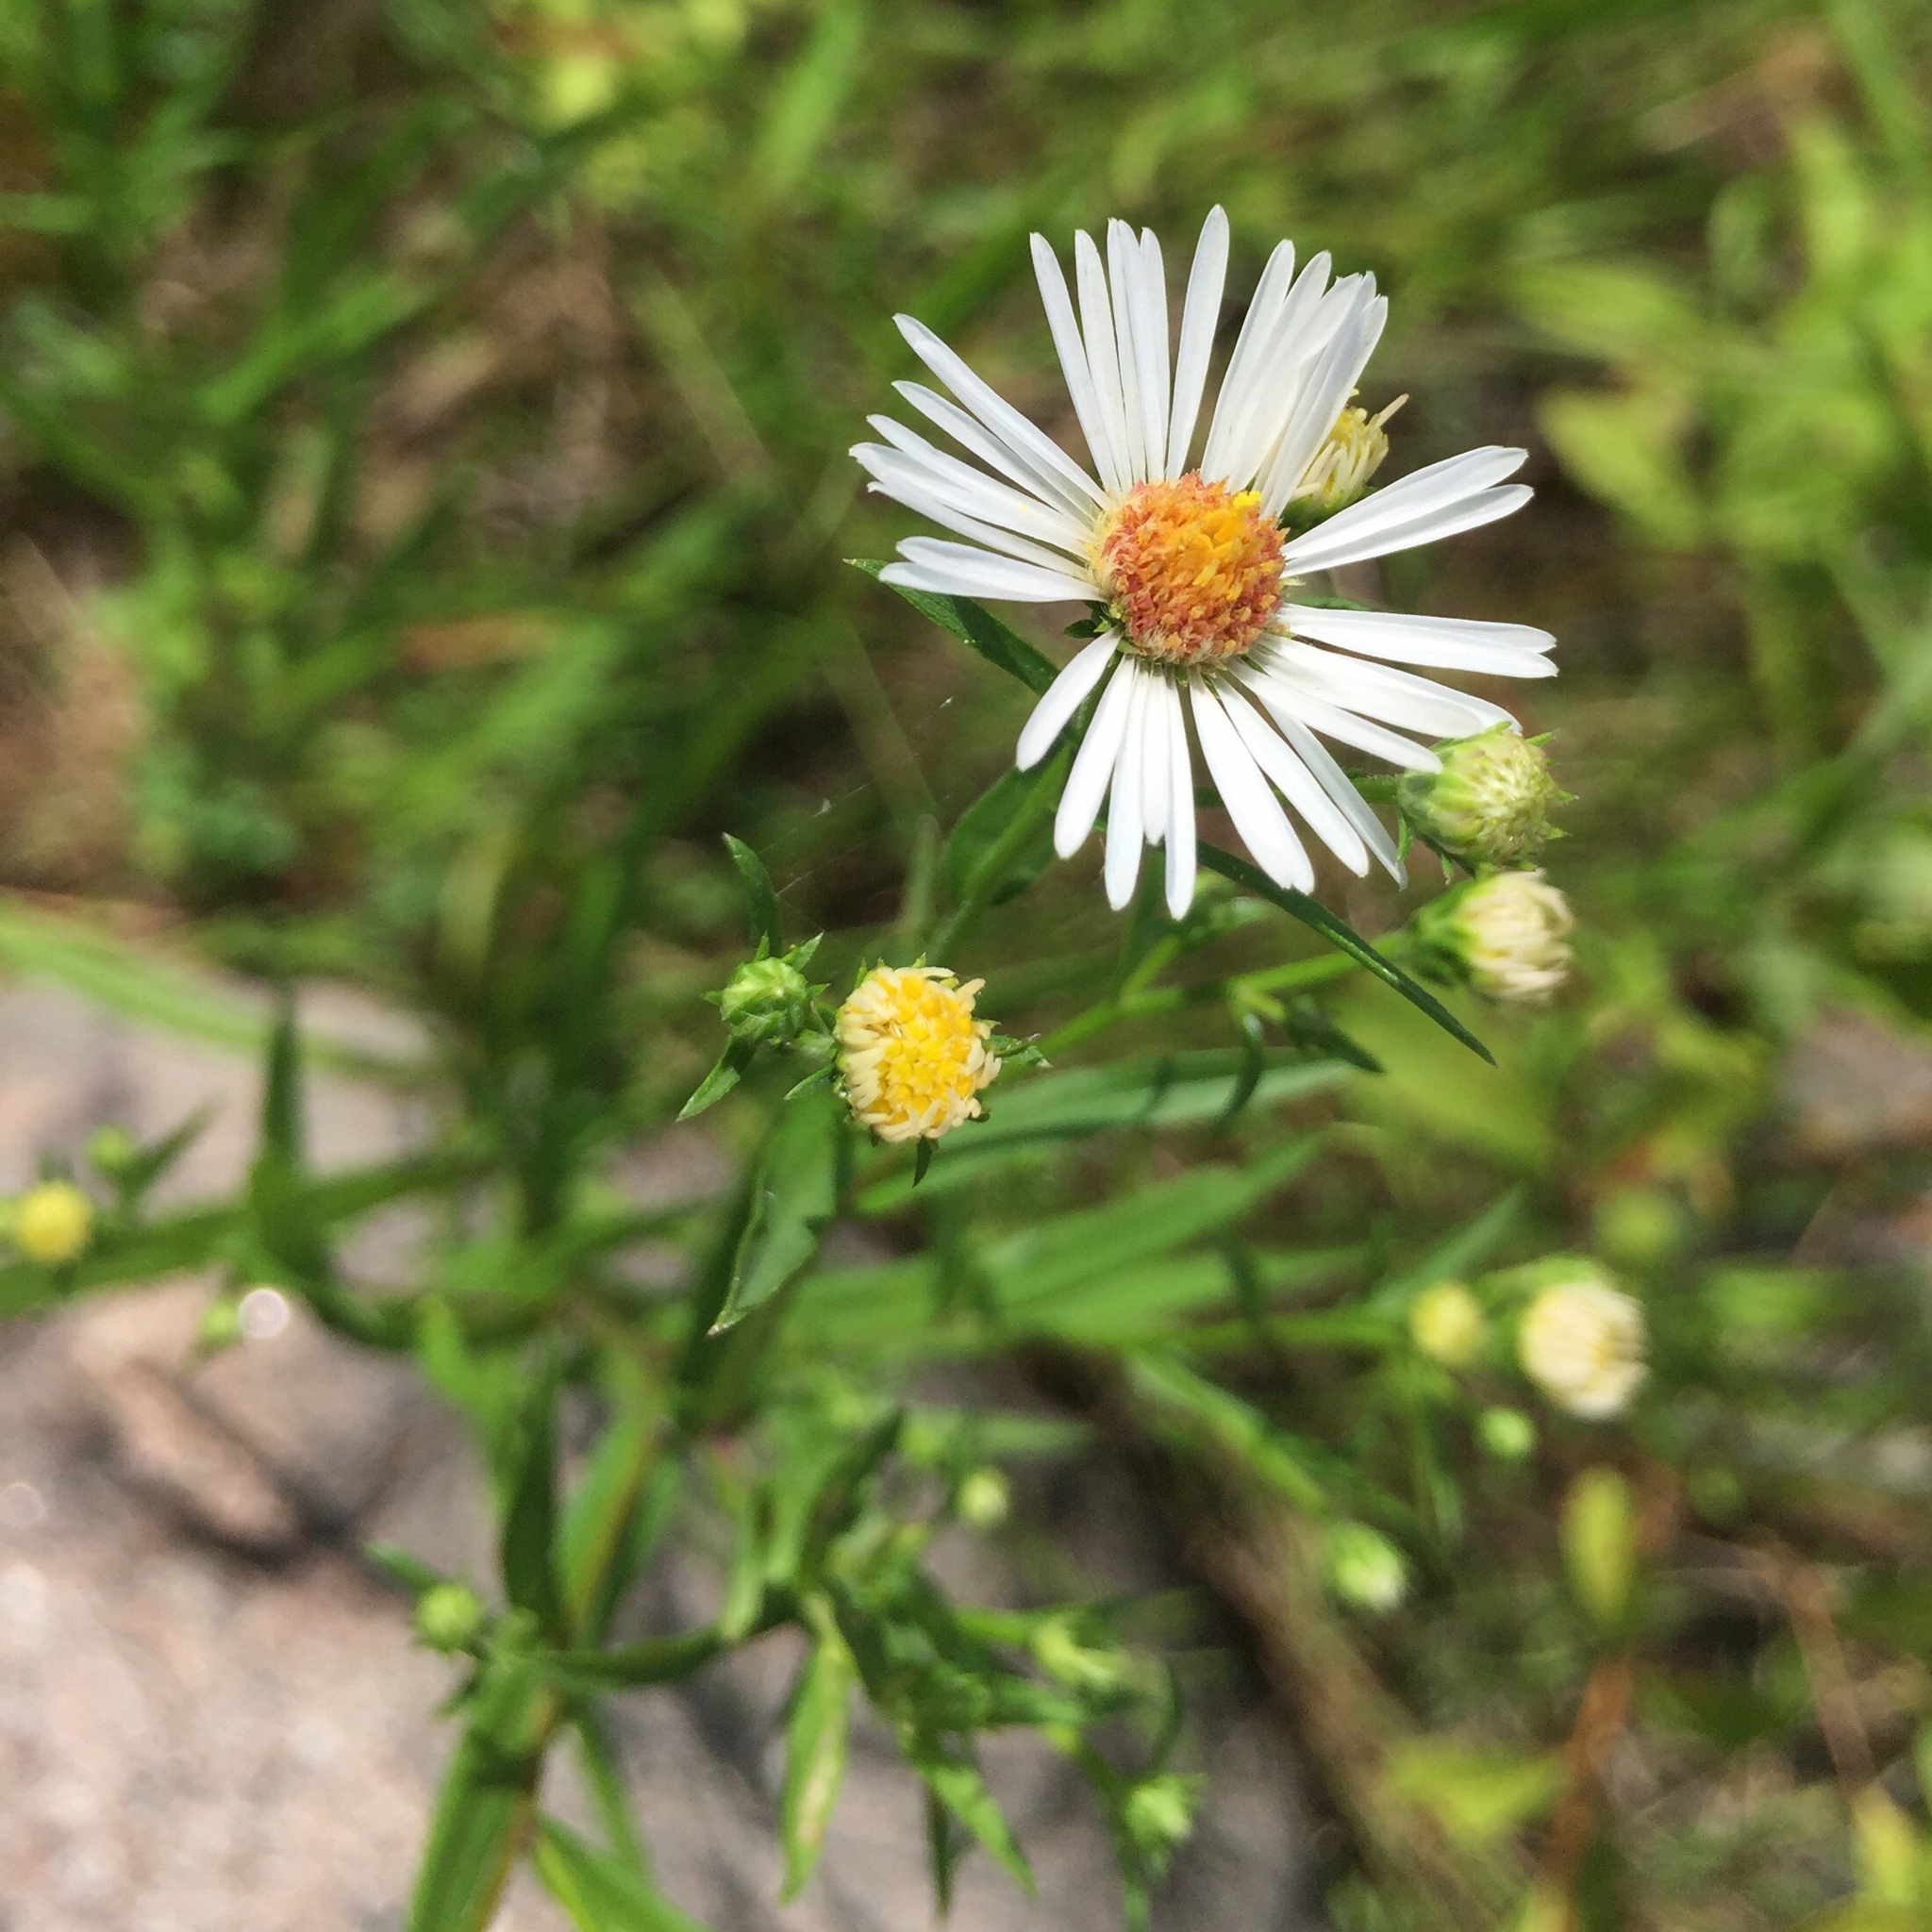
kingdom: Plantae
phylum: Tracheophyta
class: Magnoliopsida
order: Asterales
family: Asteraceae
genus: Symphyotrichum
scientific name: Symphyotrichum lanceolatum
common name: Panicled aster
